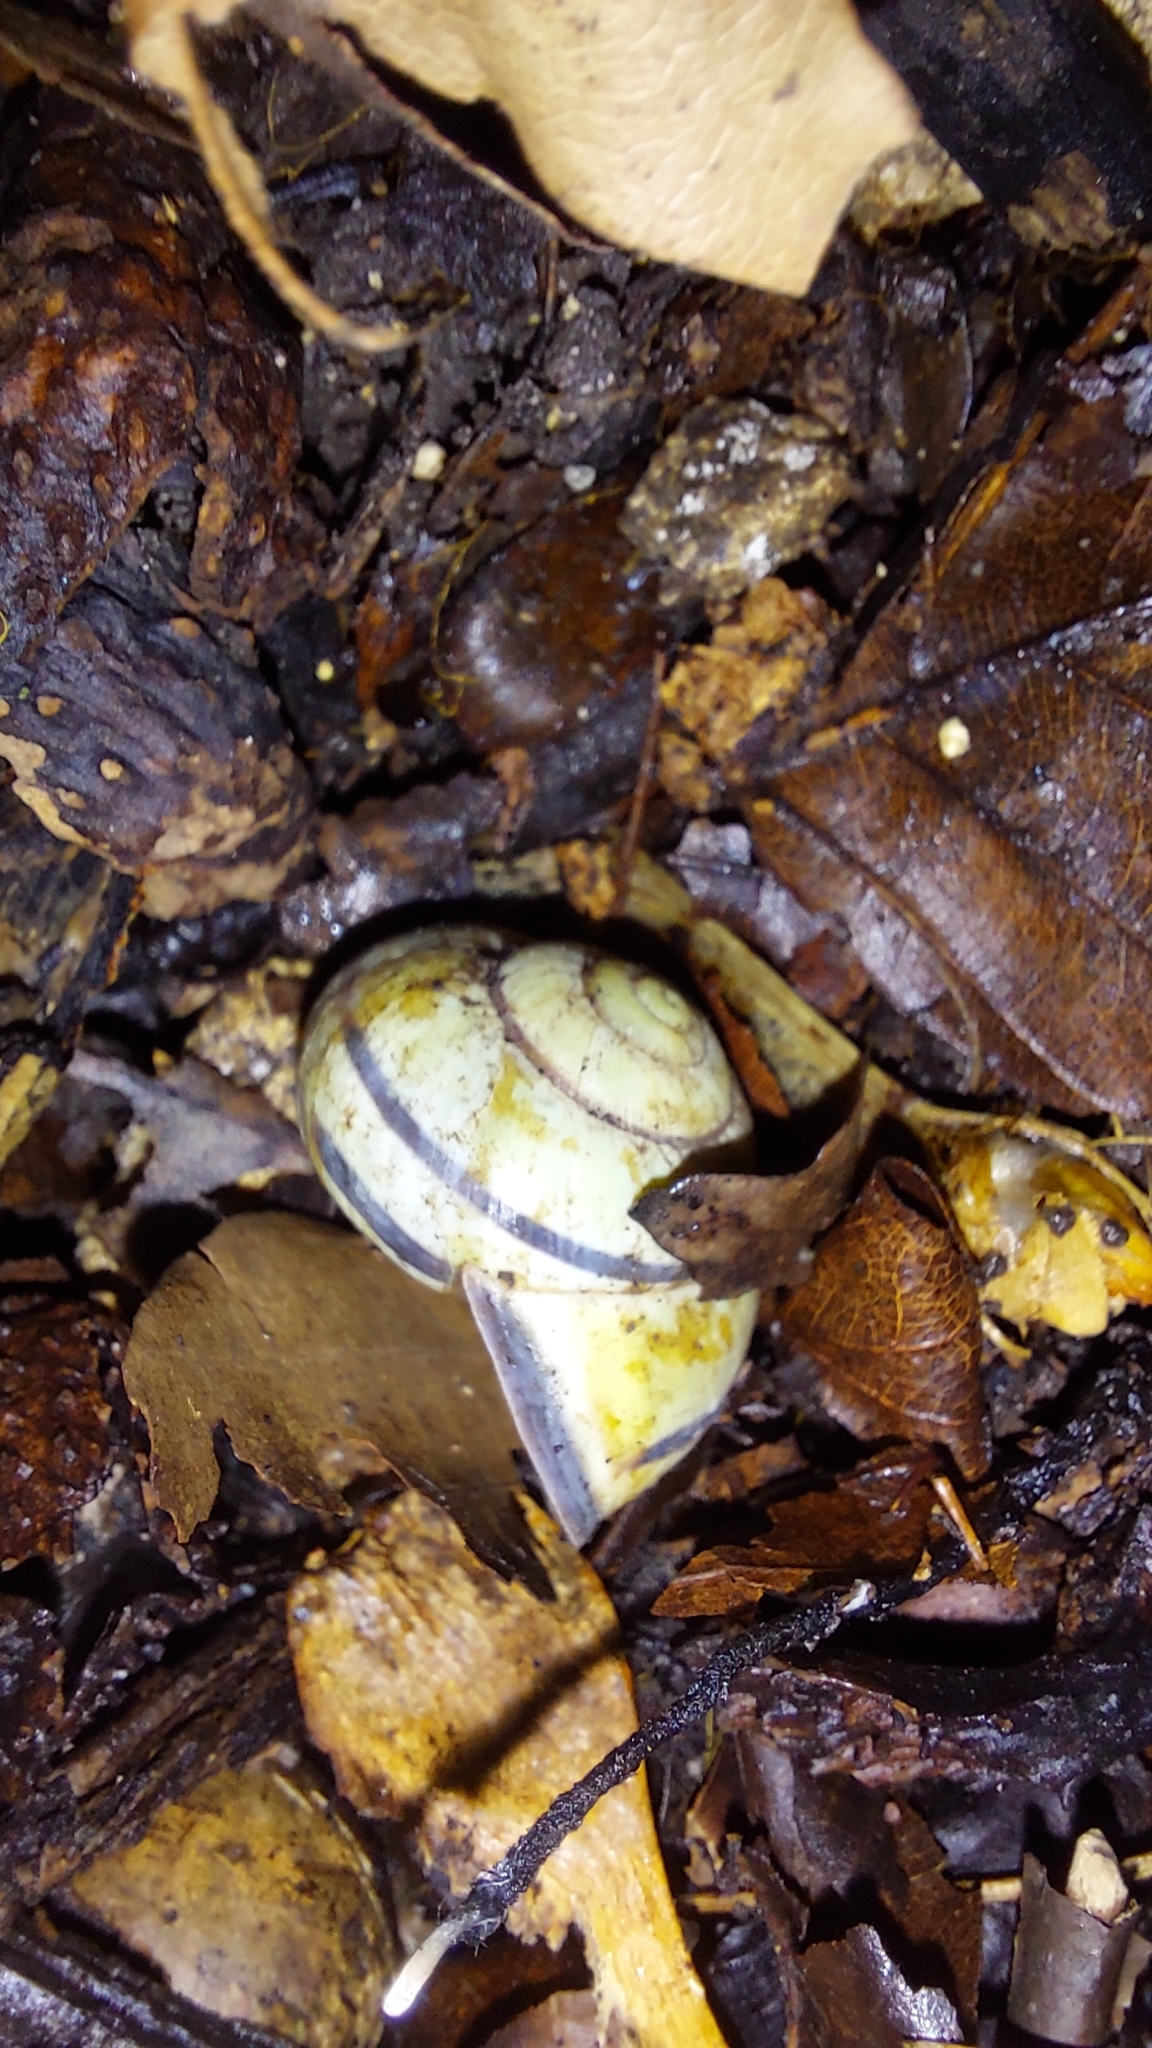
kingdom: Animalia
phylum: Mollusca
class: Gastropoda
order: Stylommatophora
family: Helicidae
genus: Cepaea
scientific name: Cepaea nemoralis
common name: Grovesnail
